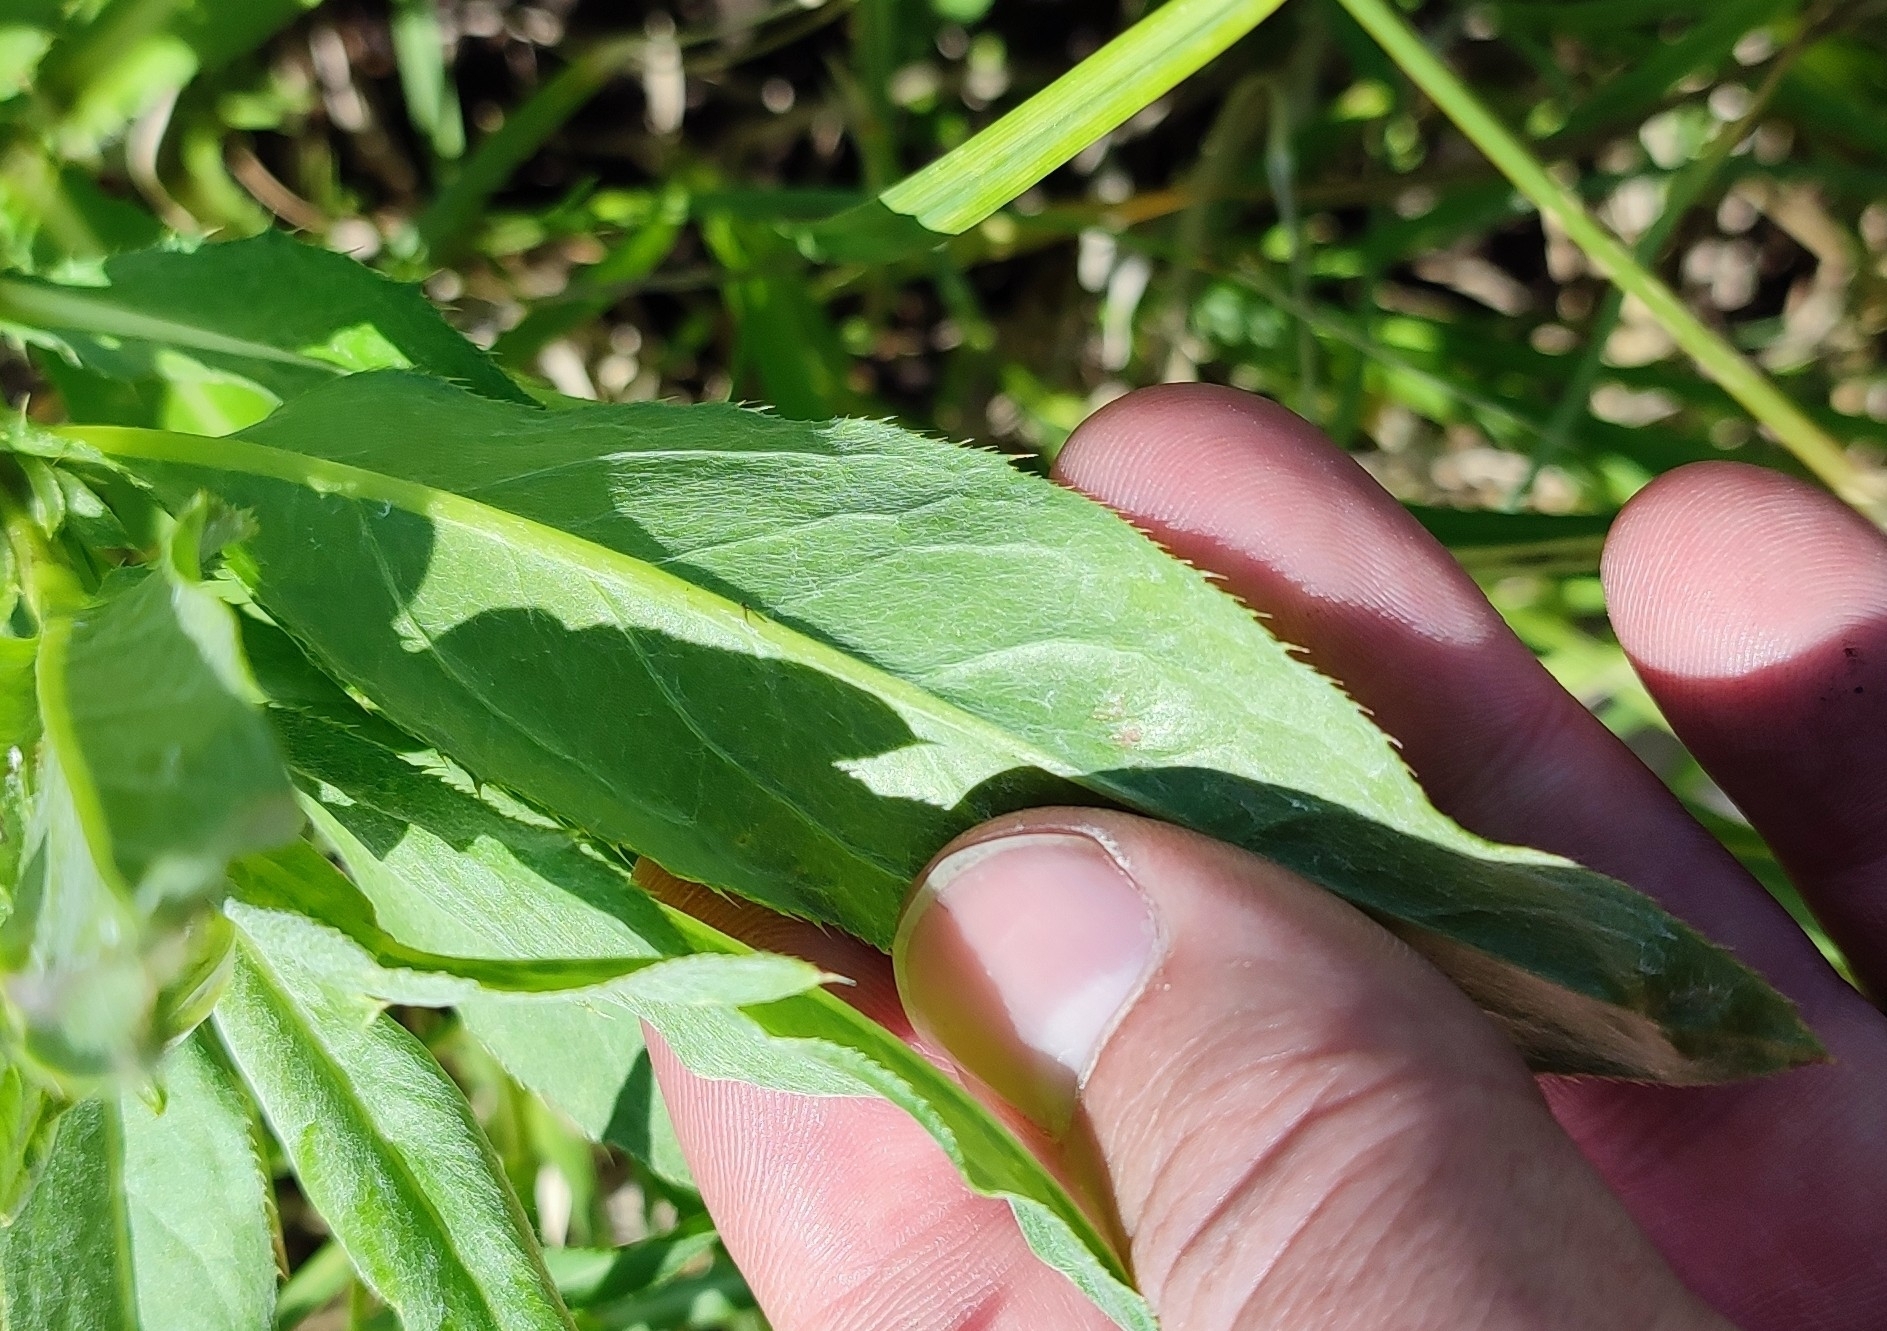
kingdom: Plantae
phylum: Tracheophyta
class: Magnoliopsida
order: Asterales
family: Asteraceae
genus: Cirsium
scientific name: Cirsium arvense
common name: Creeping thistle
